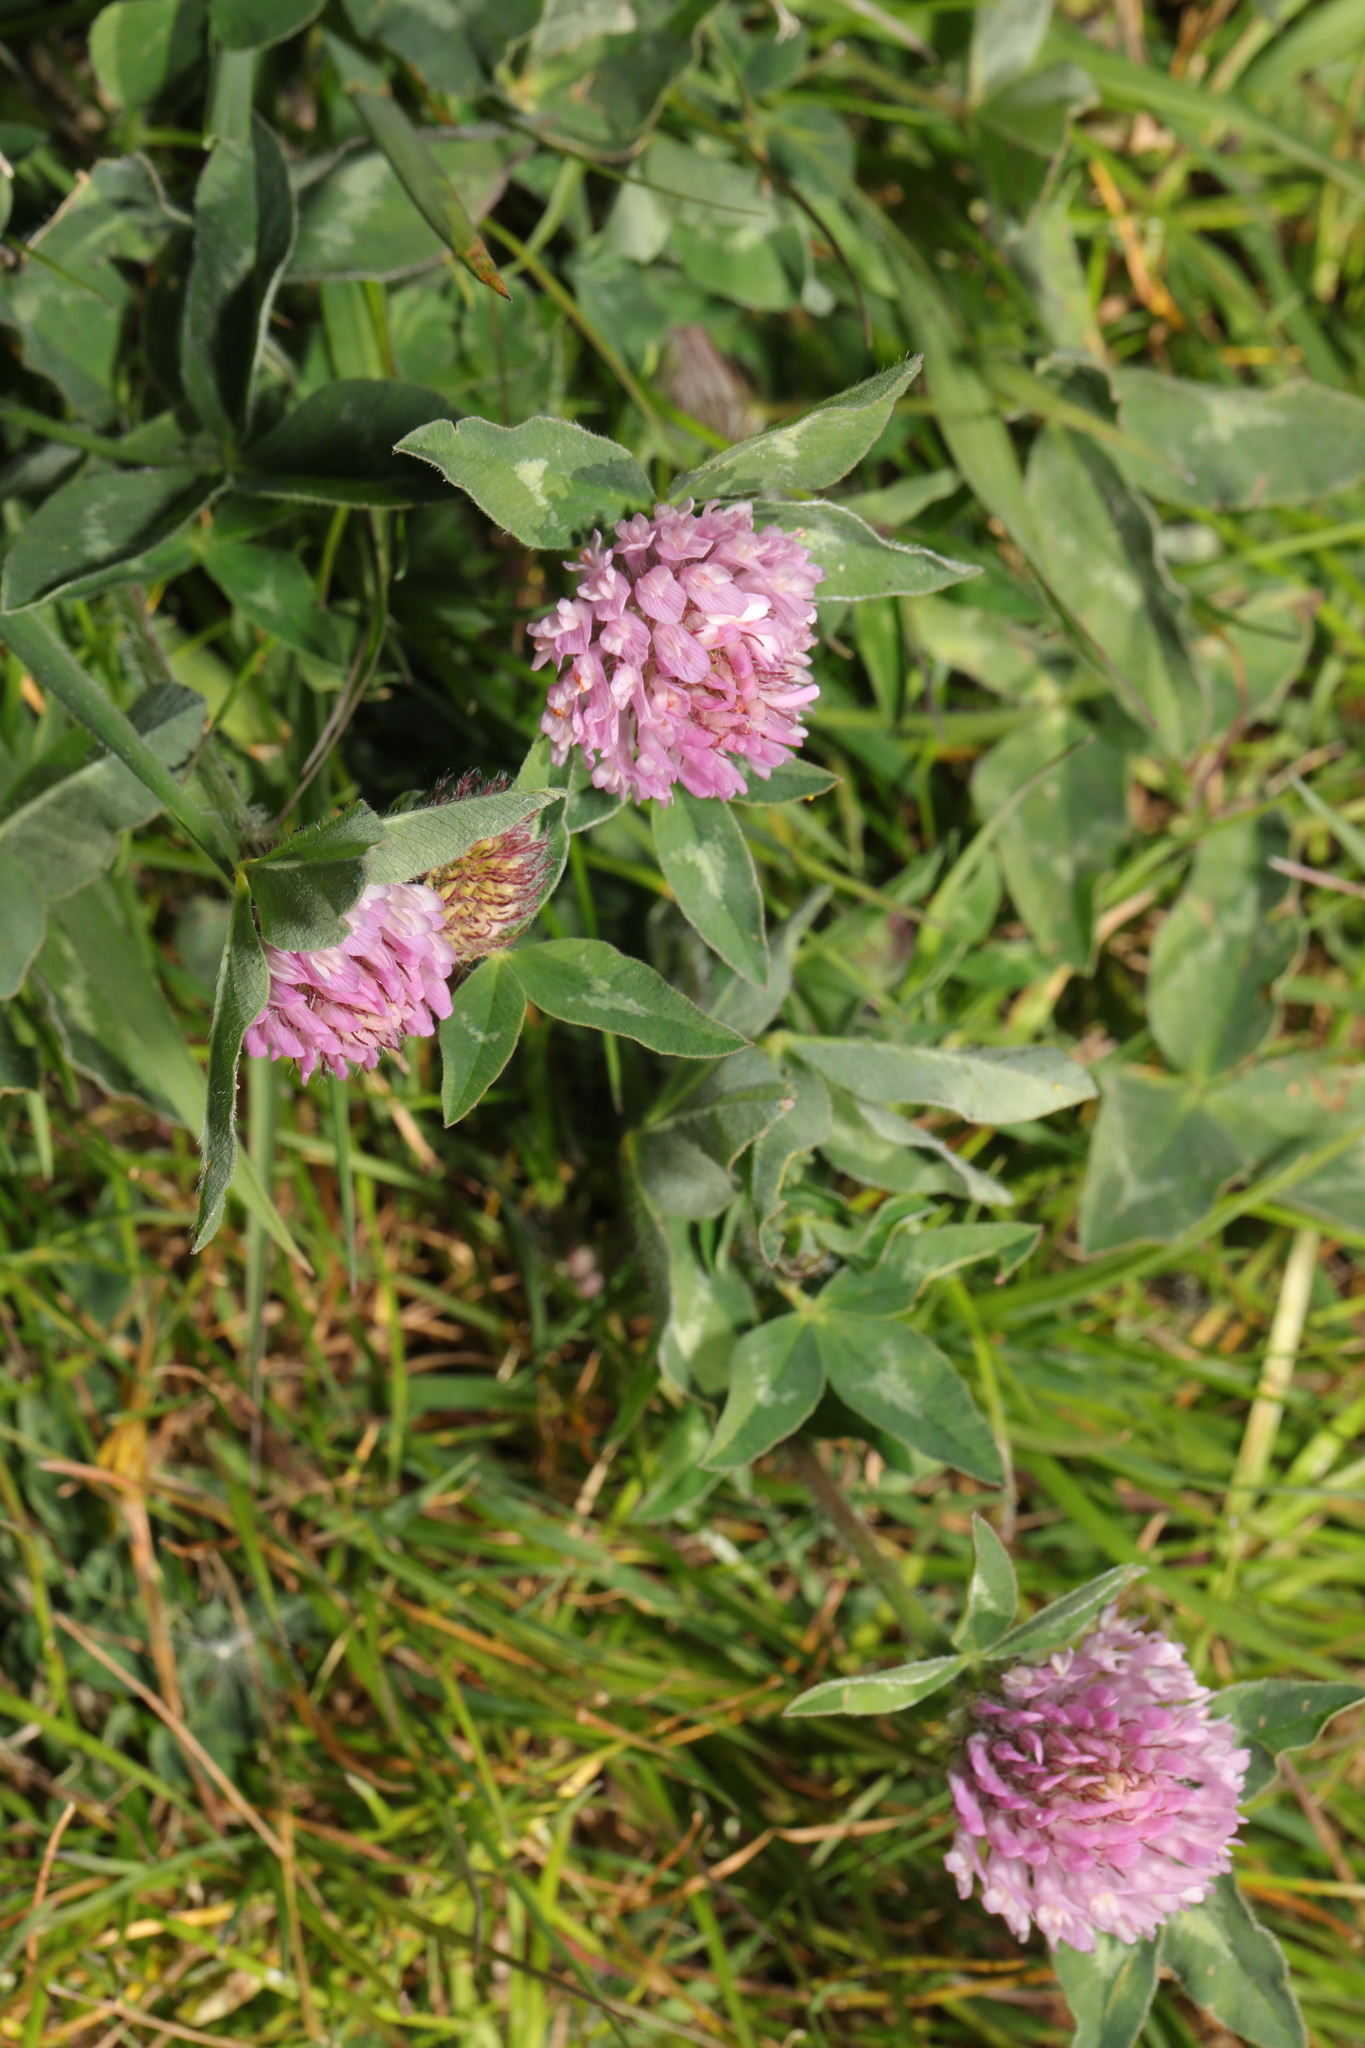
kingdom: Plantae
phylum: Tracheophyta
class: Magnoliopsida
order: Fabales
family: Fabaceae
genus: Trifolium
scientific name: Trifolium pratense
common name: Red clover
